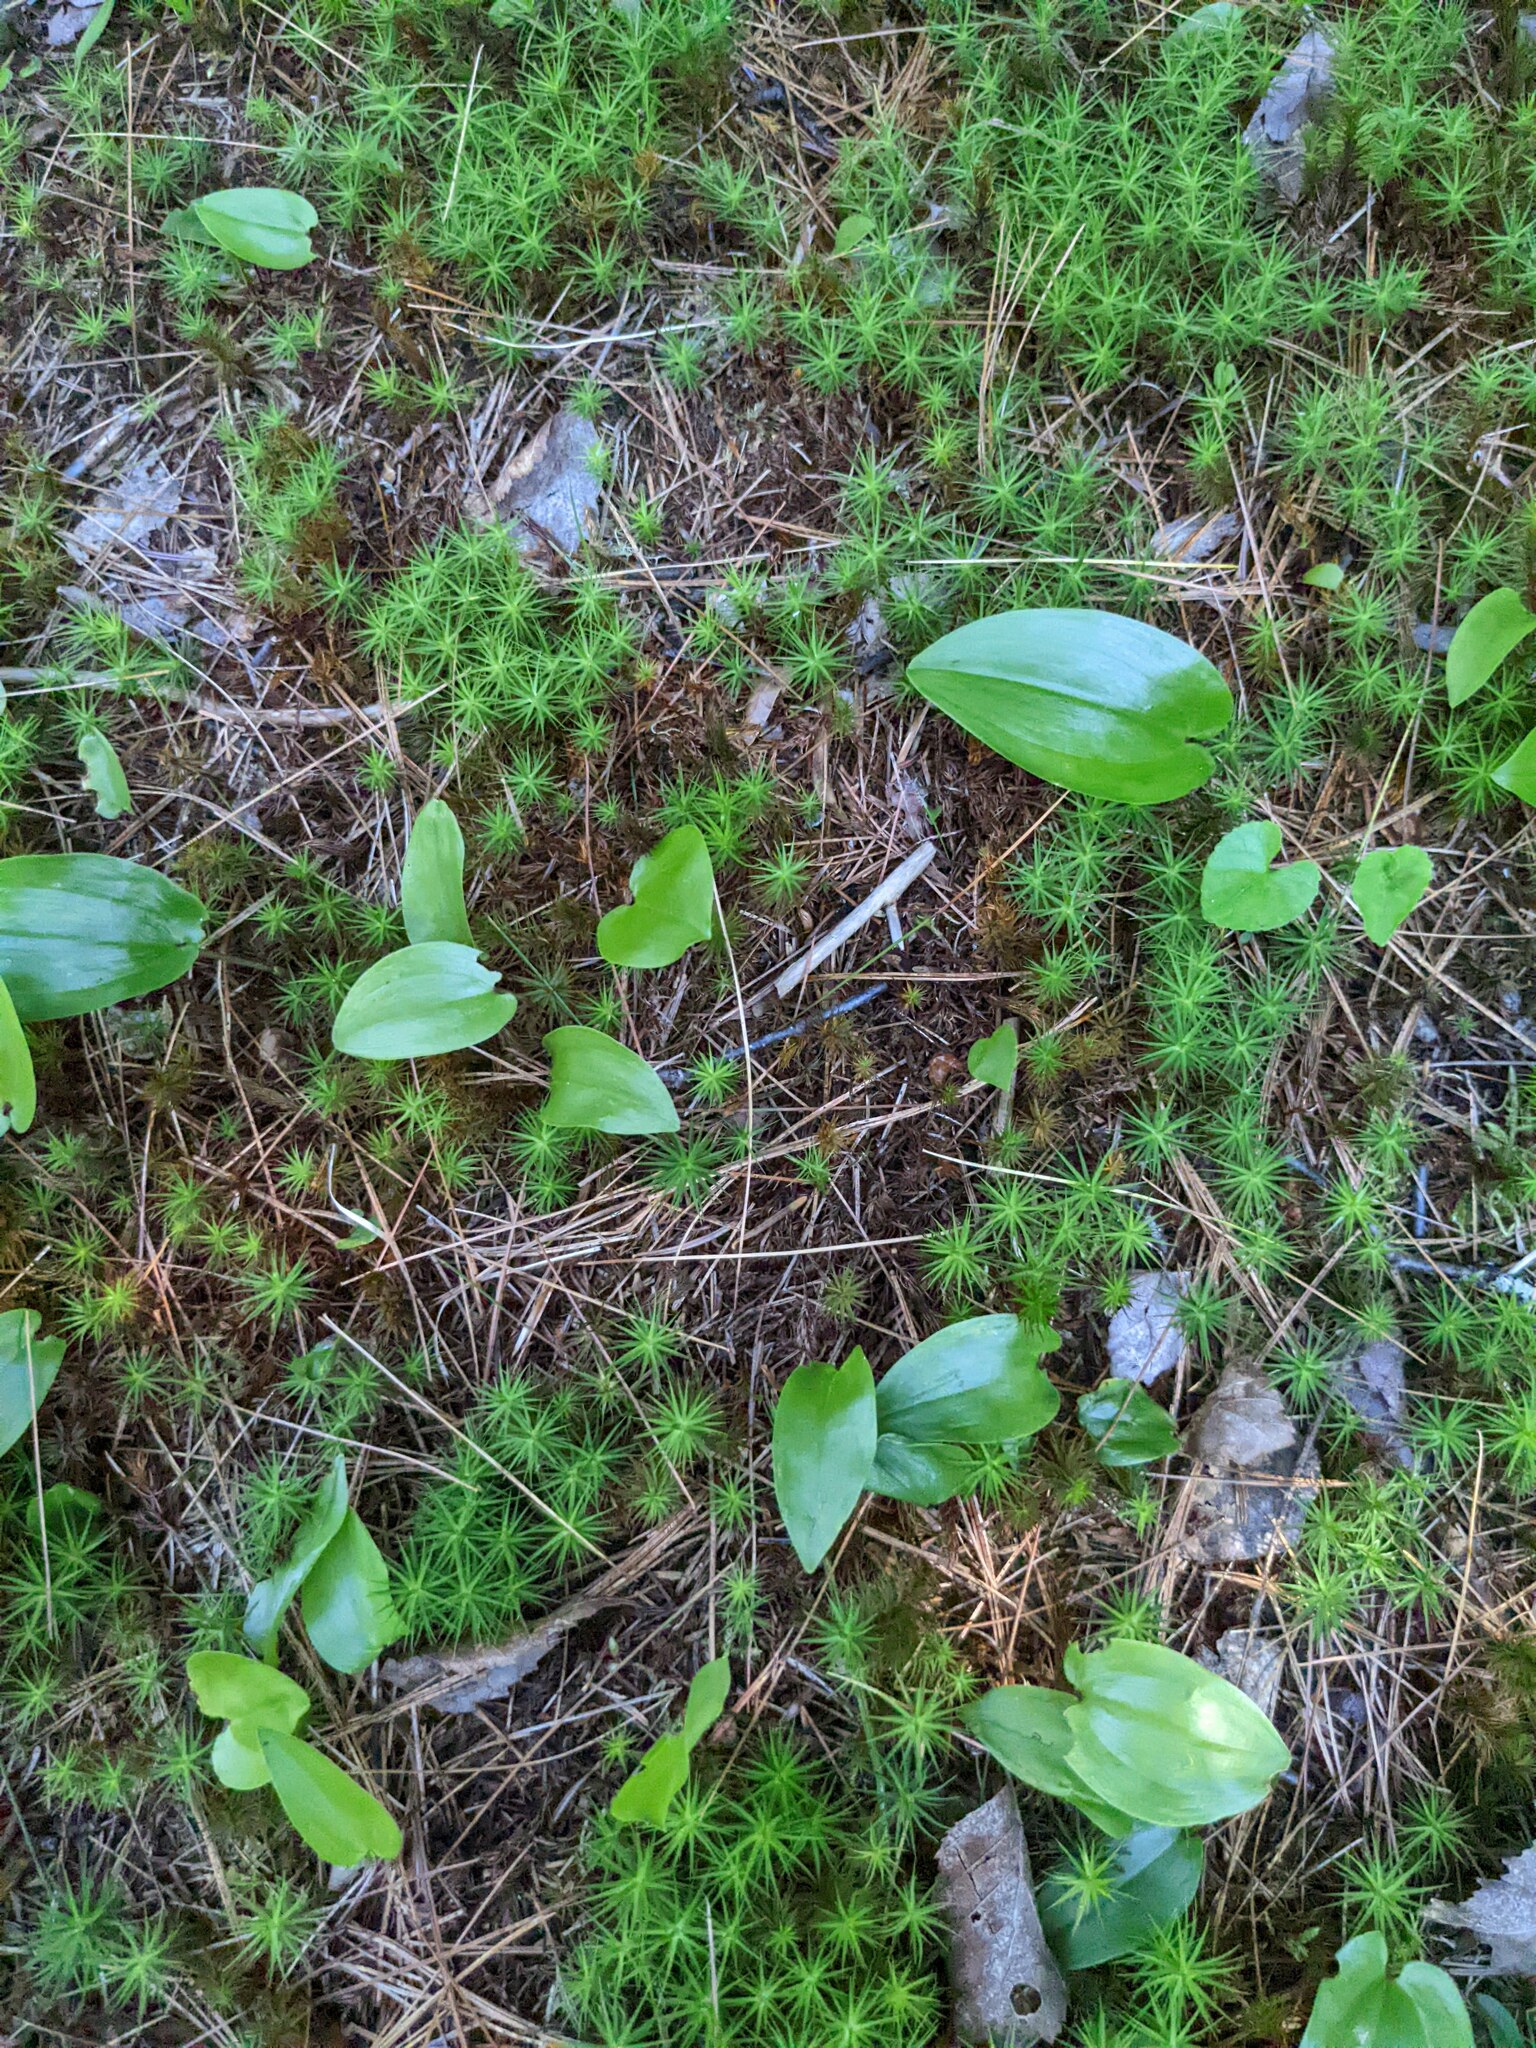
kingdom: Plantae
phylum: Tracheophyta
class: Liliopsida
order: Asparagales
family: Asparagaceae
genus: Maianthemum
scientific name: Maianthemum canadense
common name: False lily-of-the-valley
